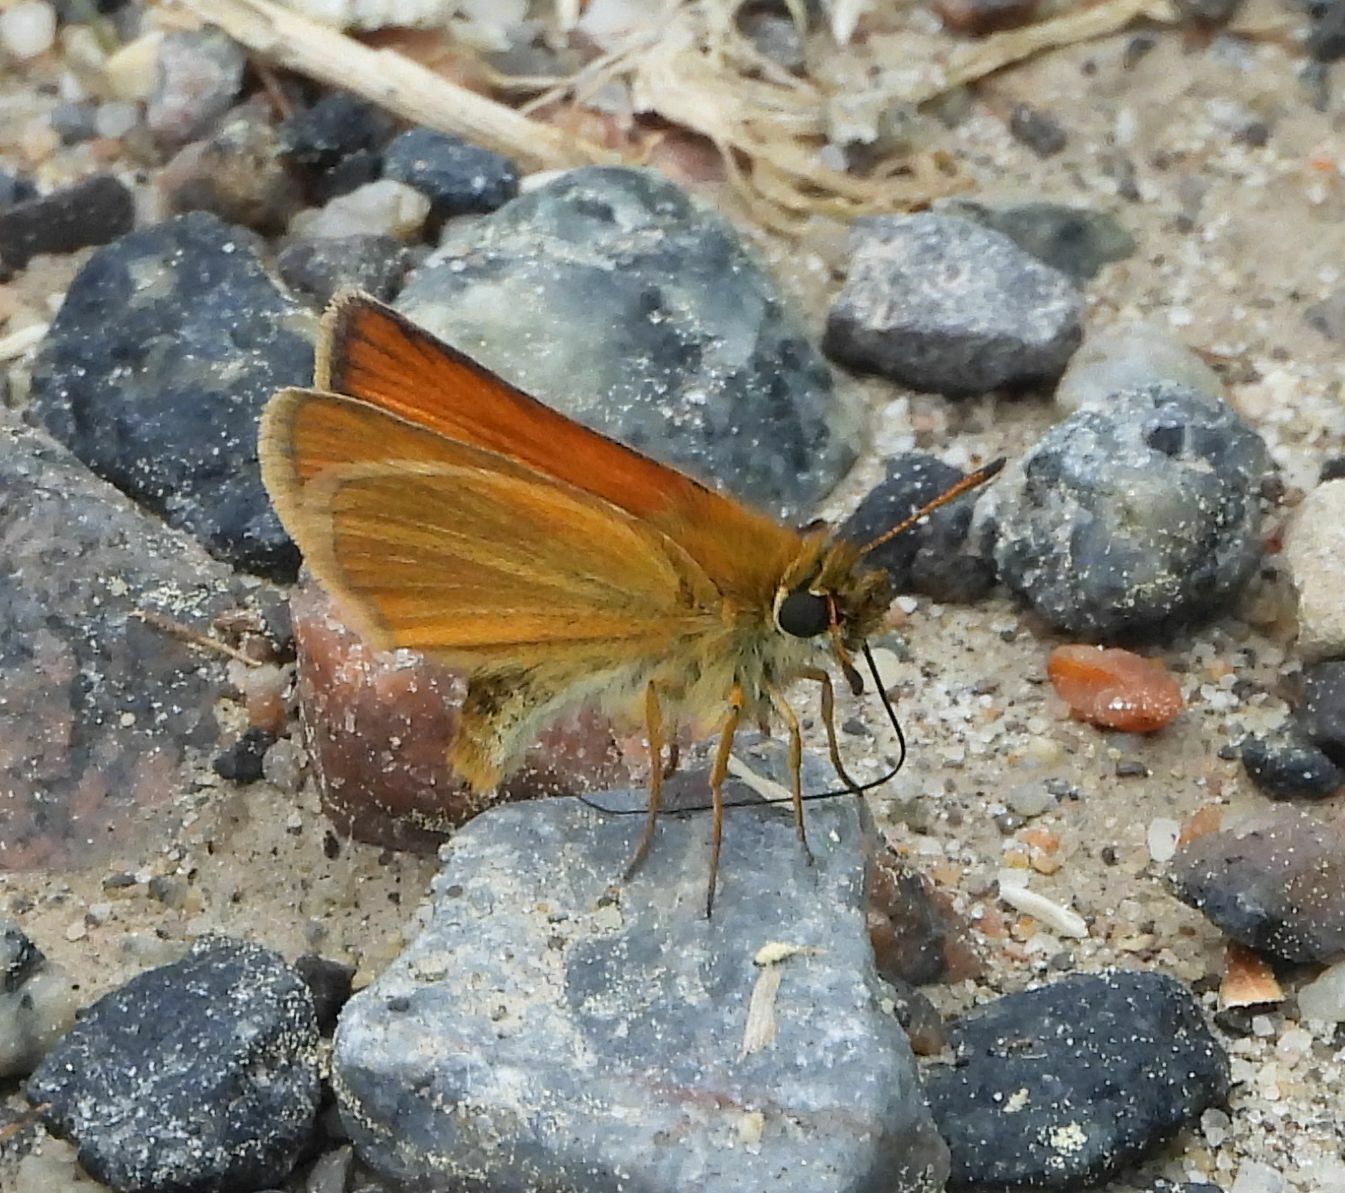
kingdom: Animalia
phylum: Arthropoda
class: Insecta
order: Lepidoptera
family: Hesperiidae
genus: Thymelicus
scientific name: Thymelicus lineola
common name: Essex skipper
